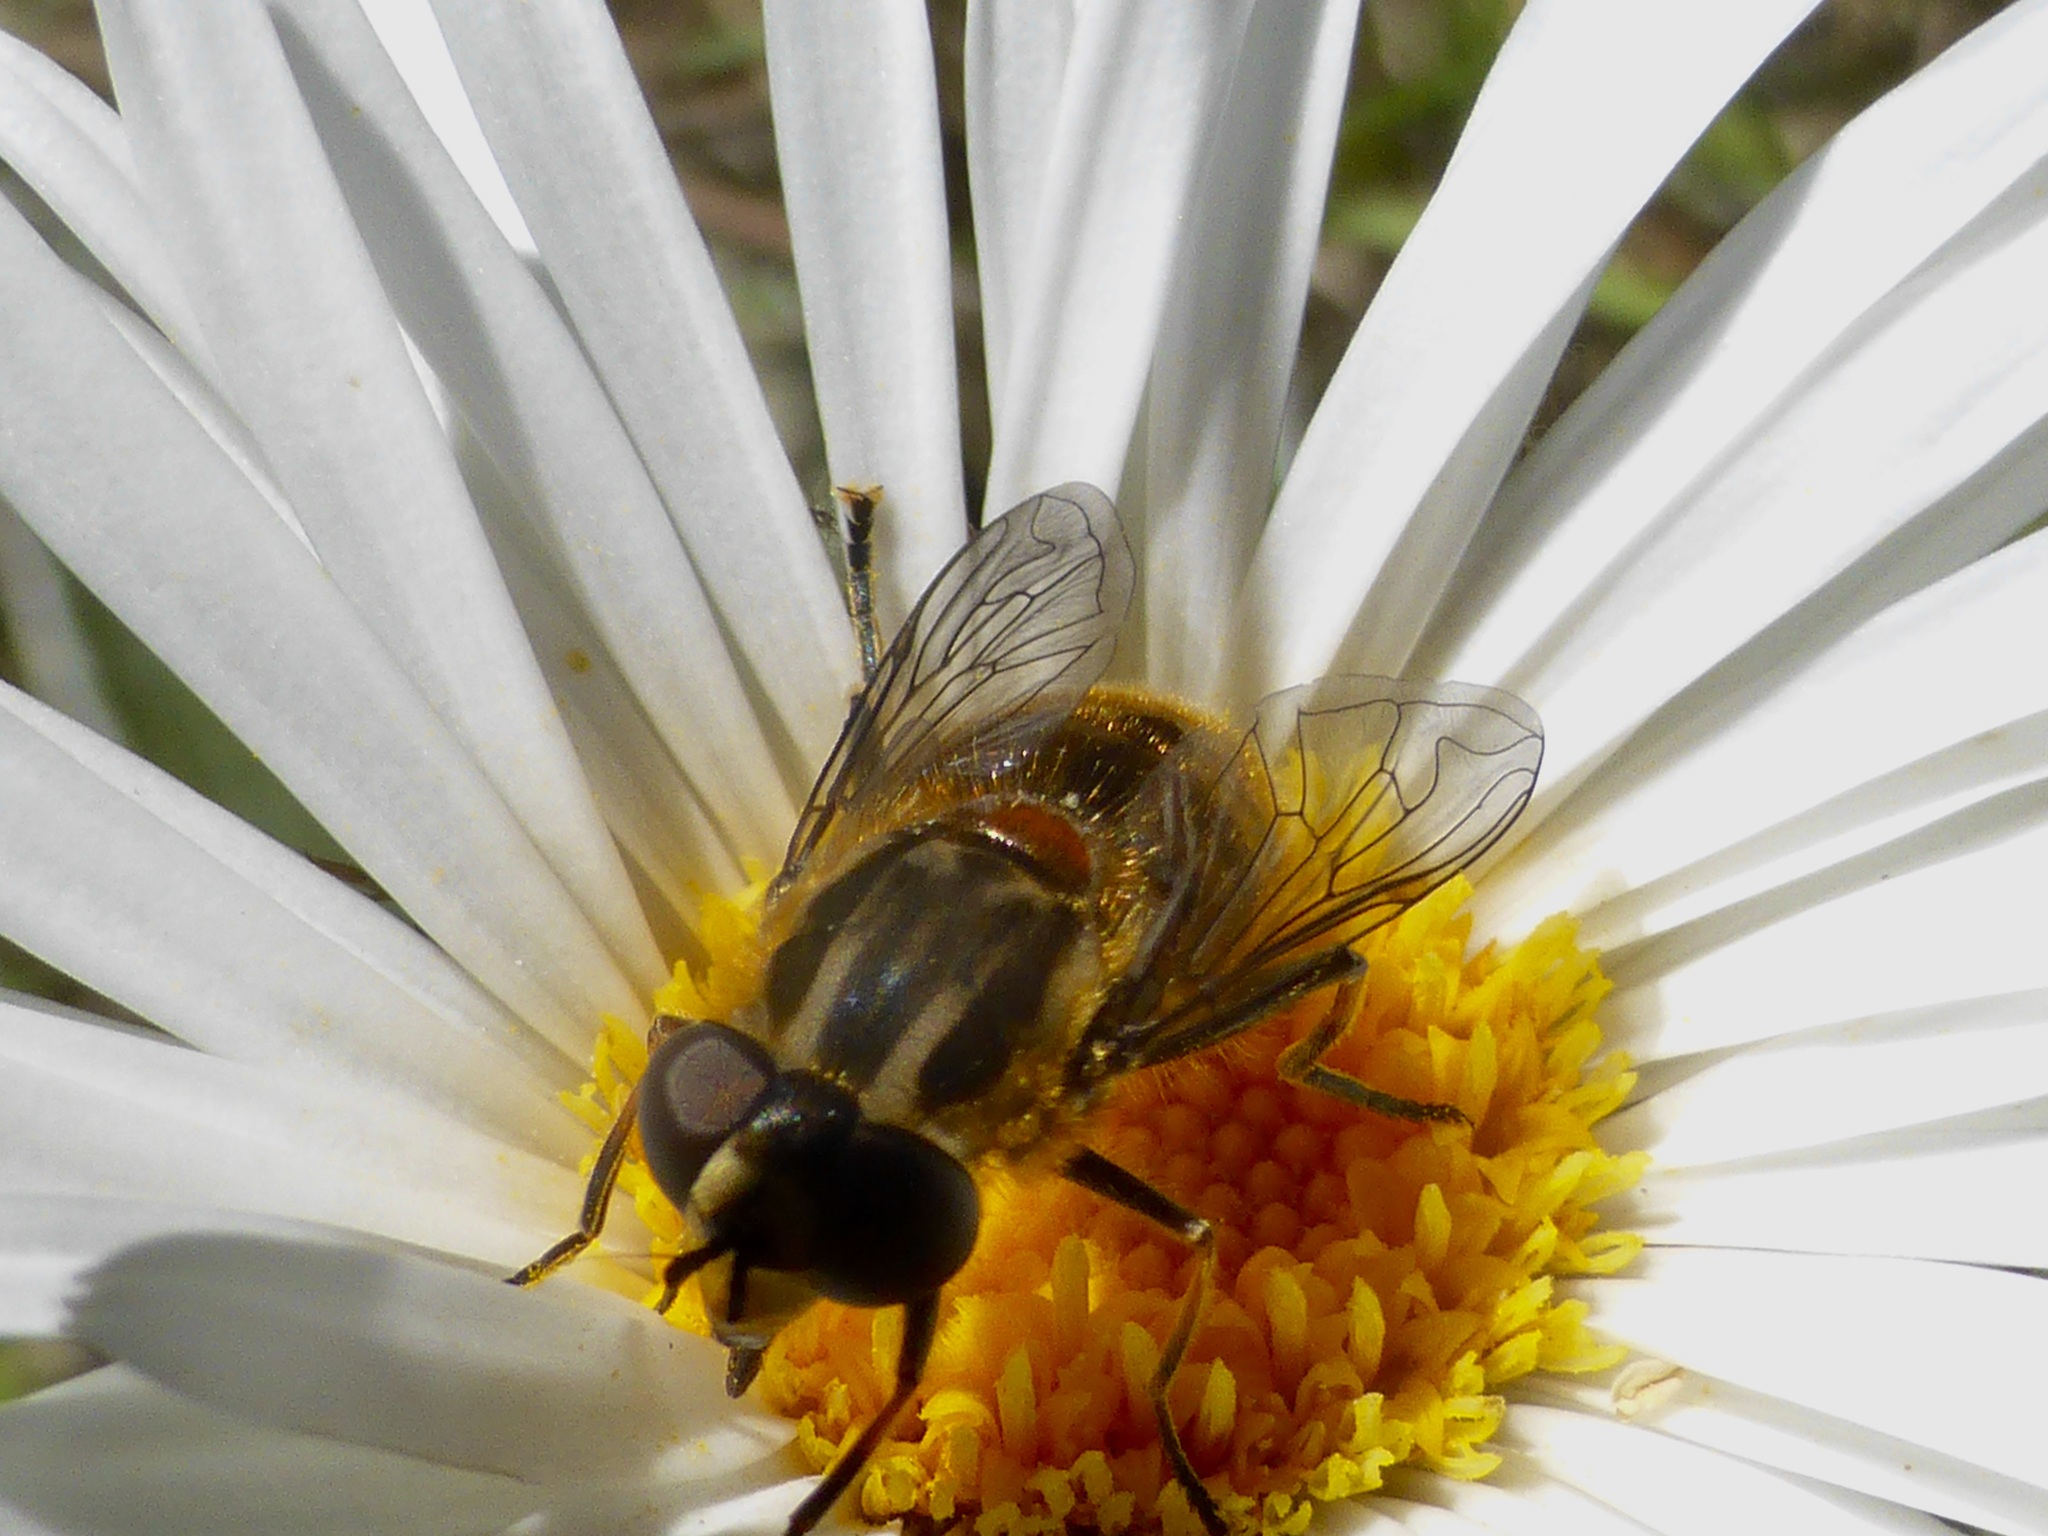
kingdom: Animalia
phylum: Arthropoda
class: Insecta
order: Diptera
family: Syrphidae
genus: Helophilus
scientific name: Helophilus antipodus
